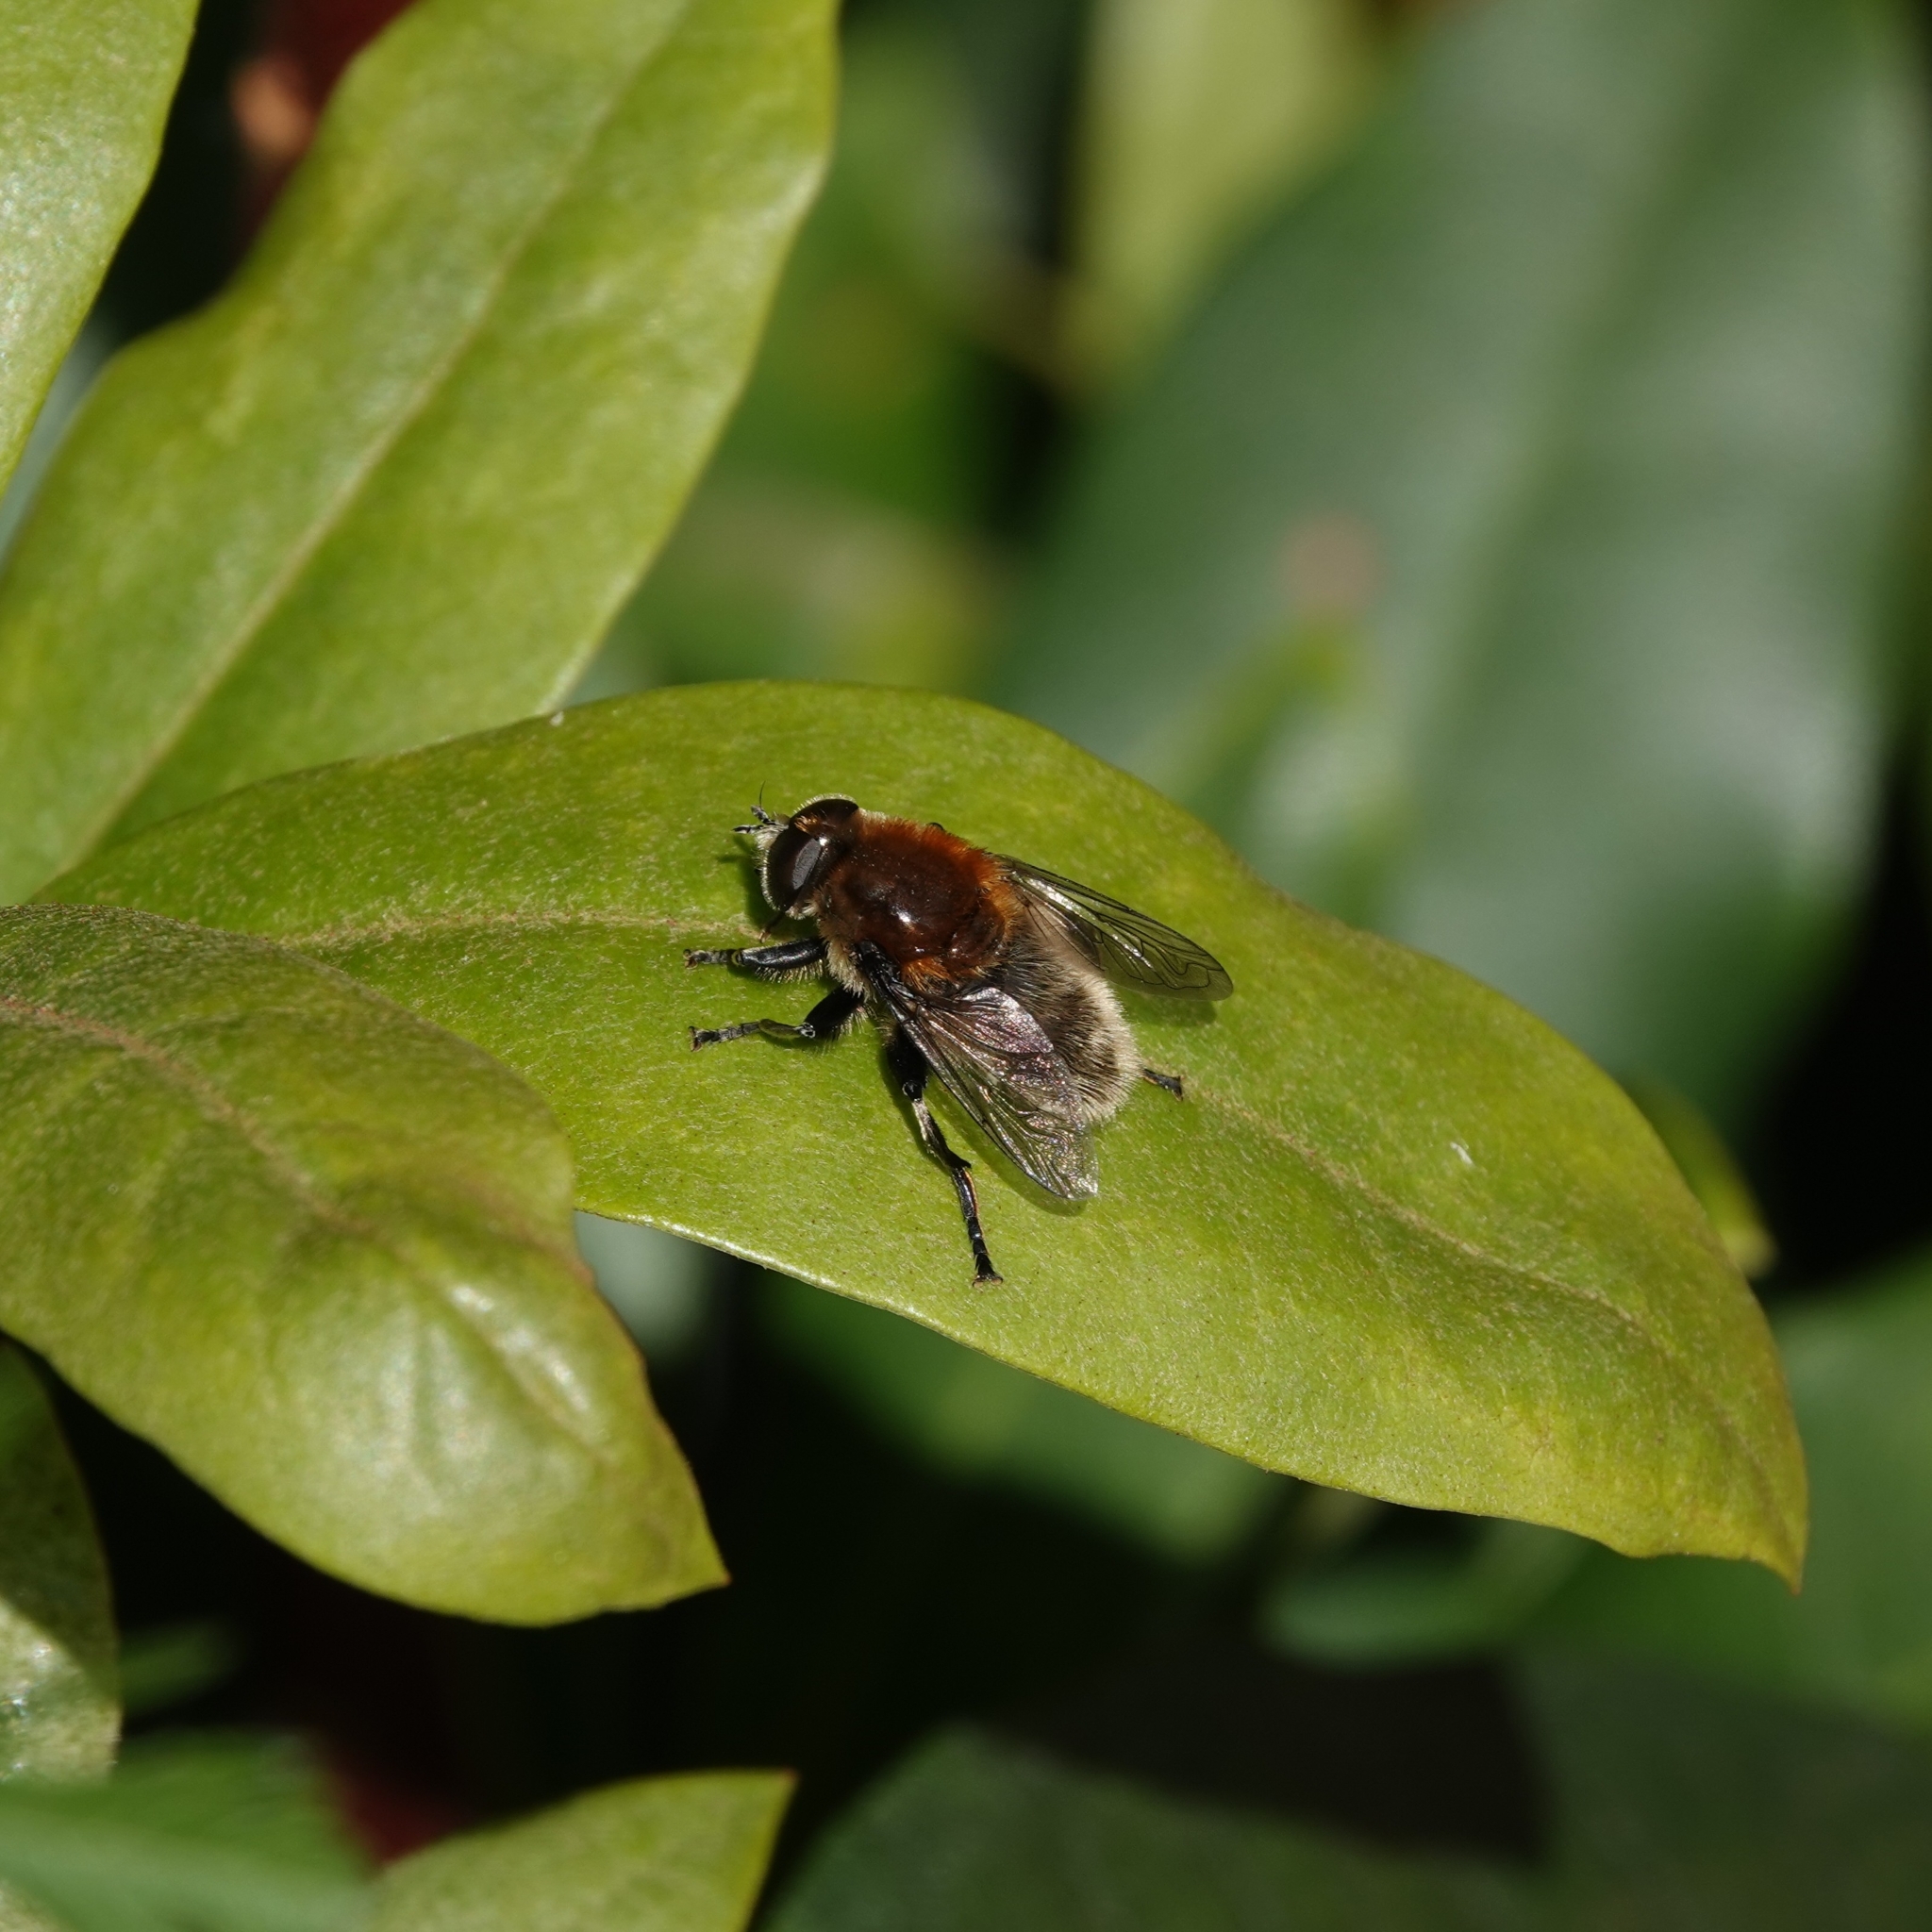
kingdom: Animalia
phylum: Arthropoda
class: Insecta
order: Diptera
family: Syrphidae
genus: Merodon
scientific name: Merodon equestris
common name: Greater bulb-fly
